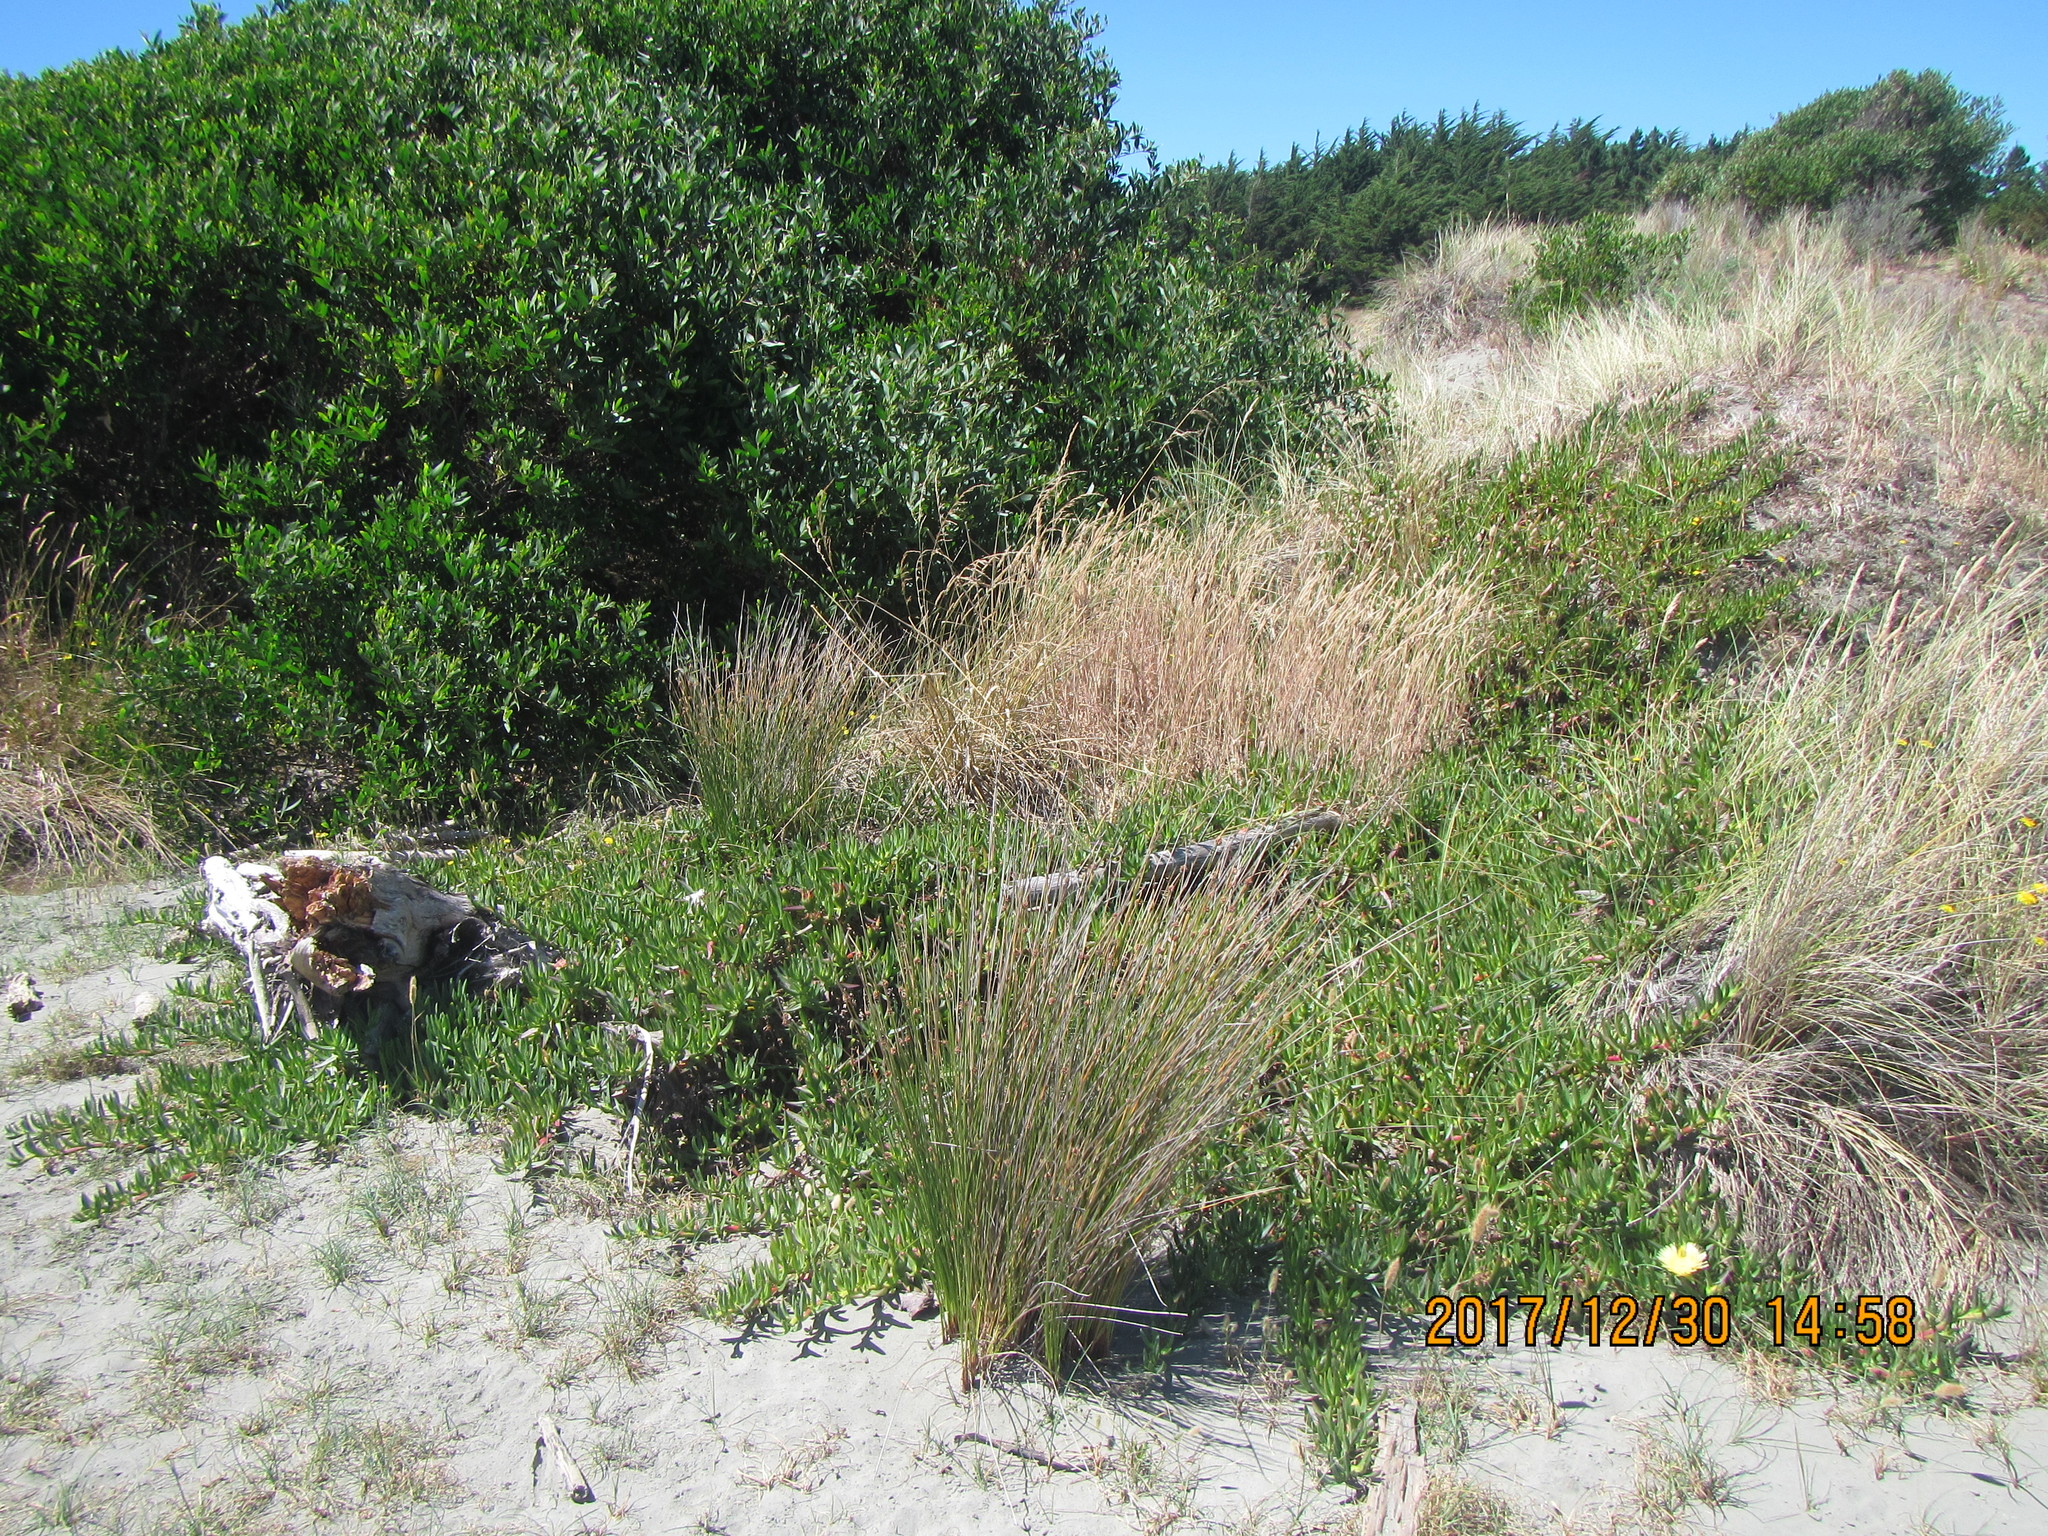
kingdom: Plantae
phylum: Tracheophyta
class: Magnoliopsida
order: Caryophyllales
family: Aizoaceae
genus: Carpobrotus
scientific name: Carpobrotus edulis
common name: Hottentot-fig
